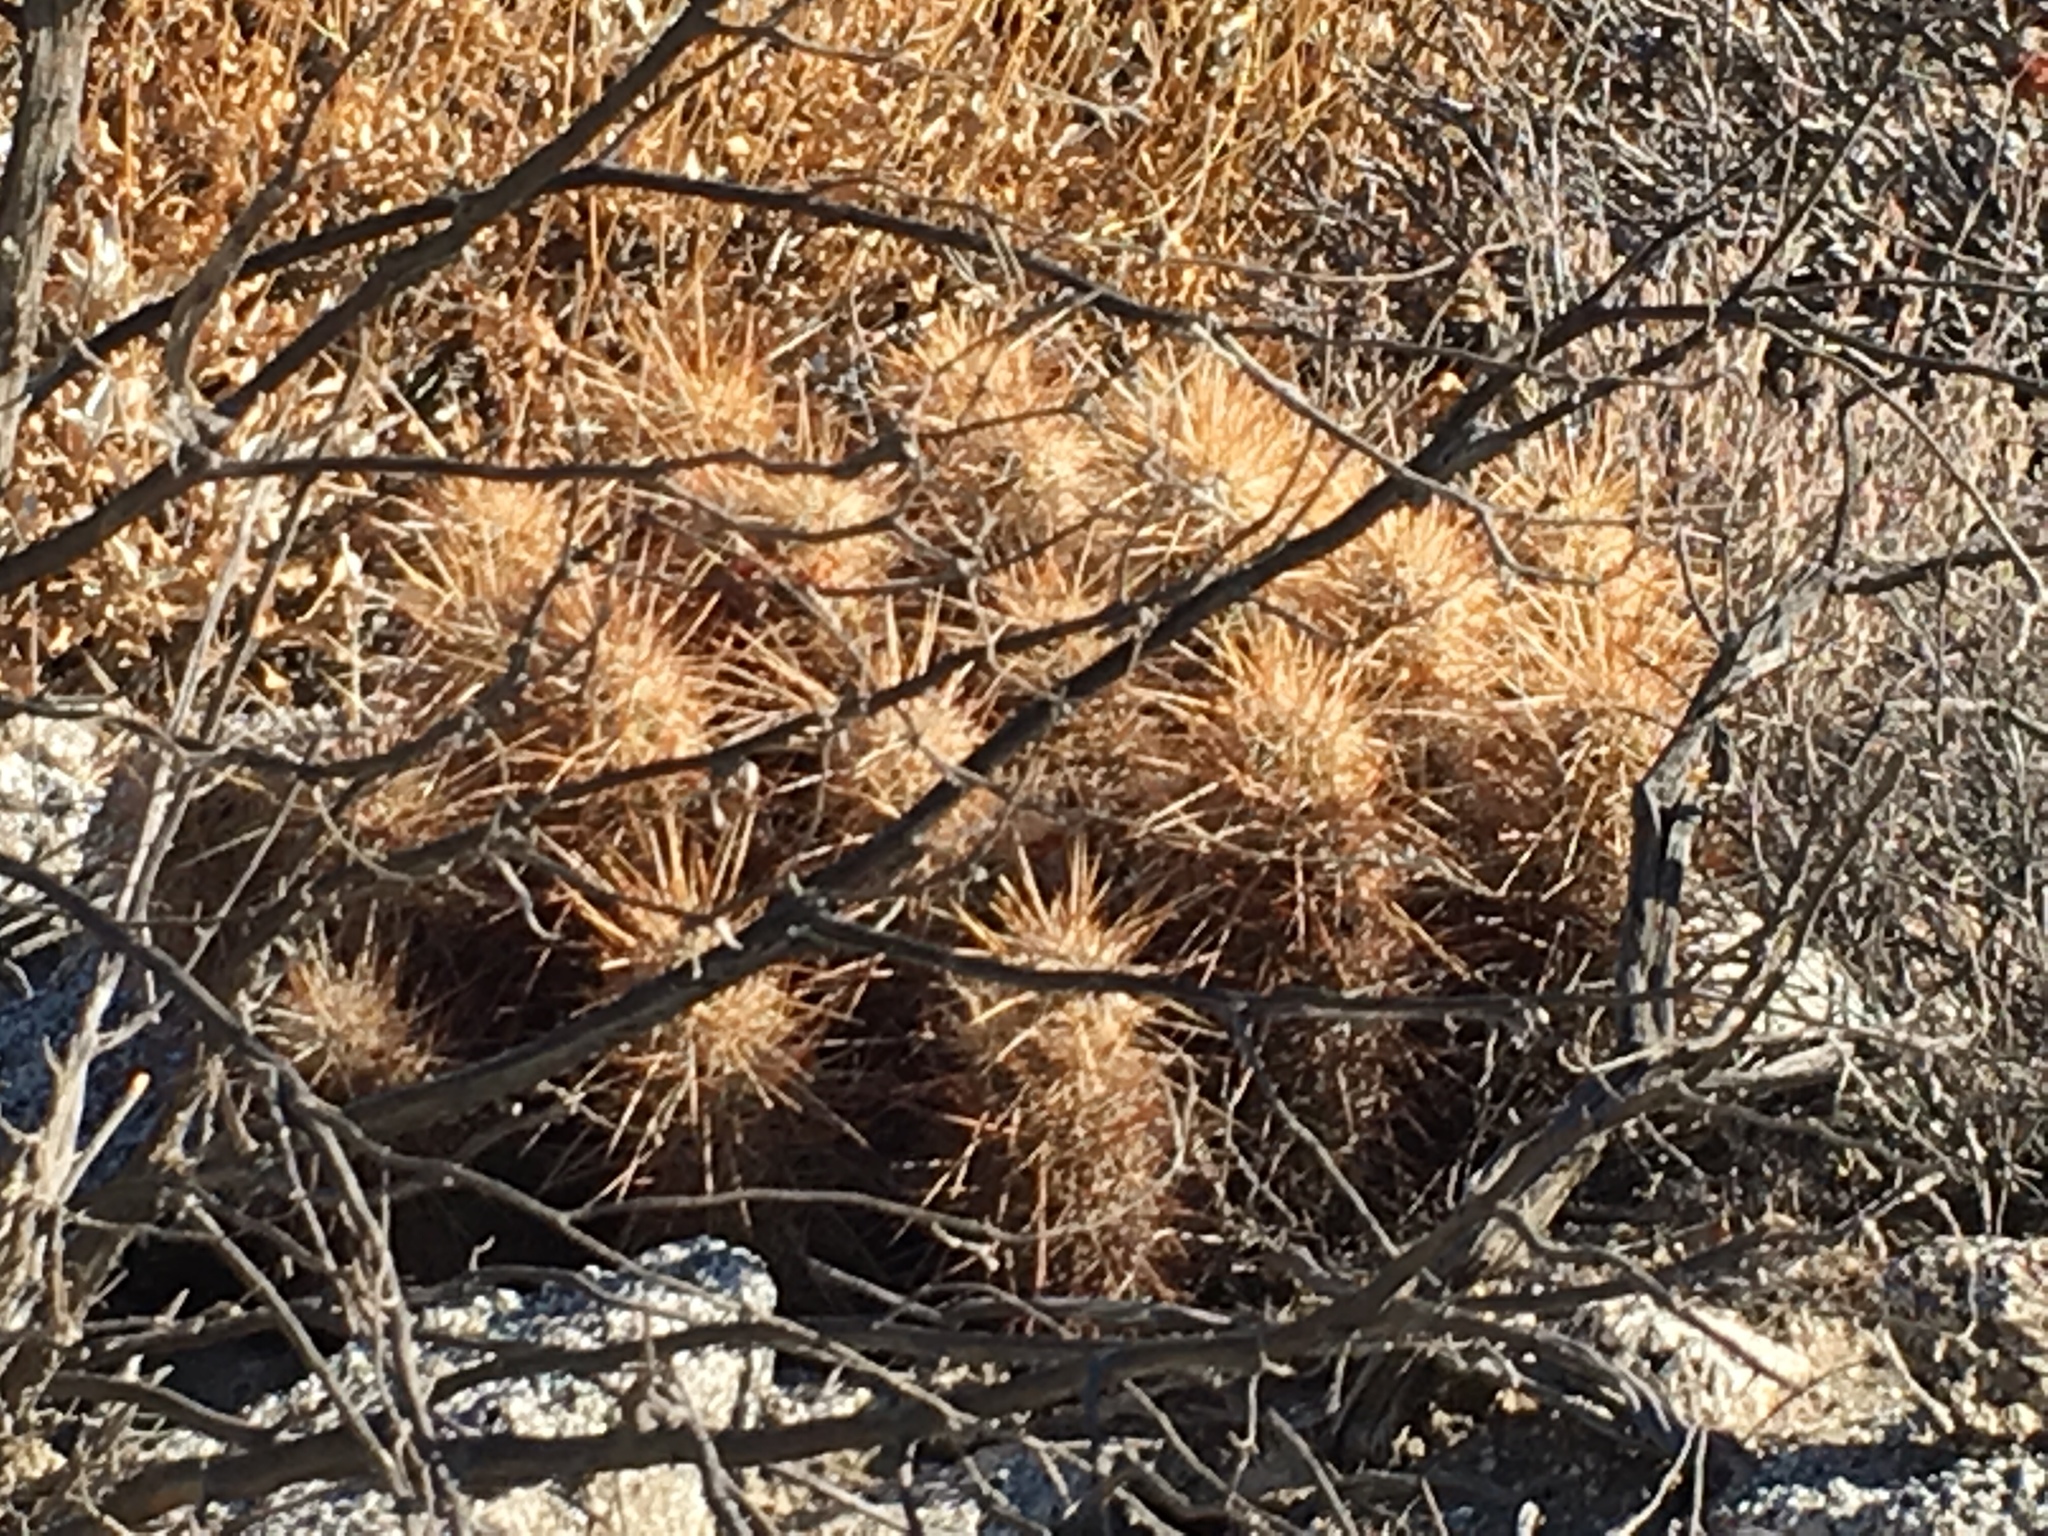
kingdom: Plantae
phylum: Tracheophyta
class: Magnoliopsida
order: Caryophyllales
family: Cactaceae
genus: Echinocereus
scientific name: Echinocereus engelmannii
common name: Engelmann's hedgehog cactus
